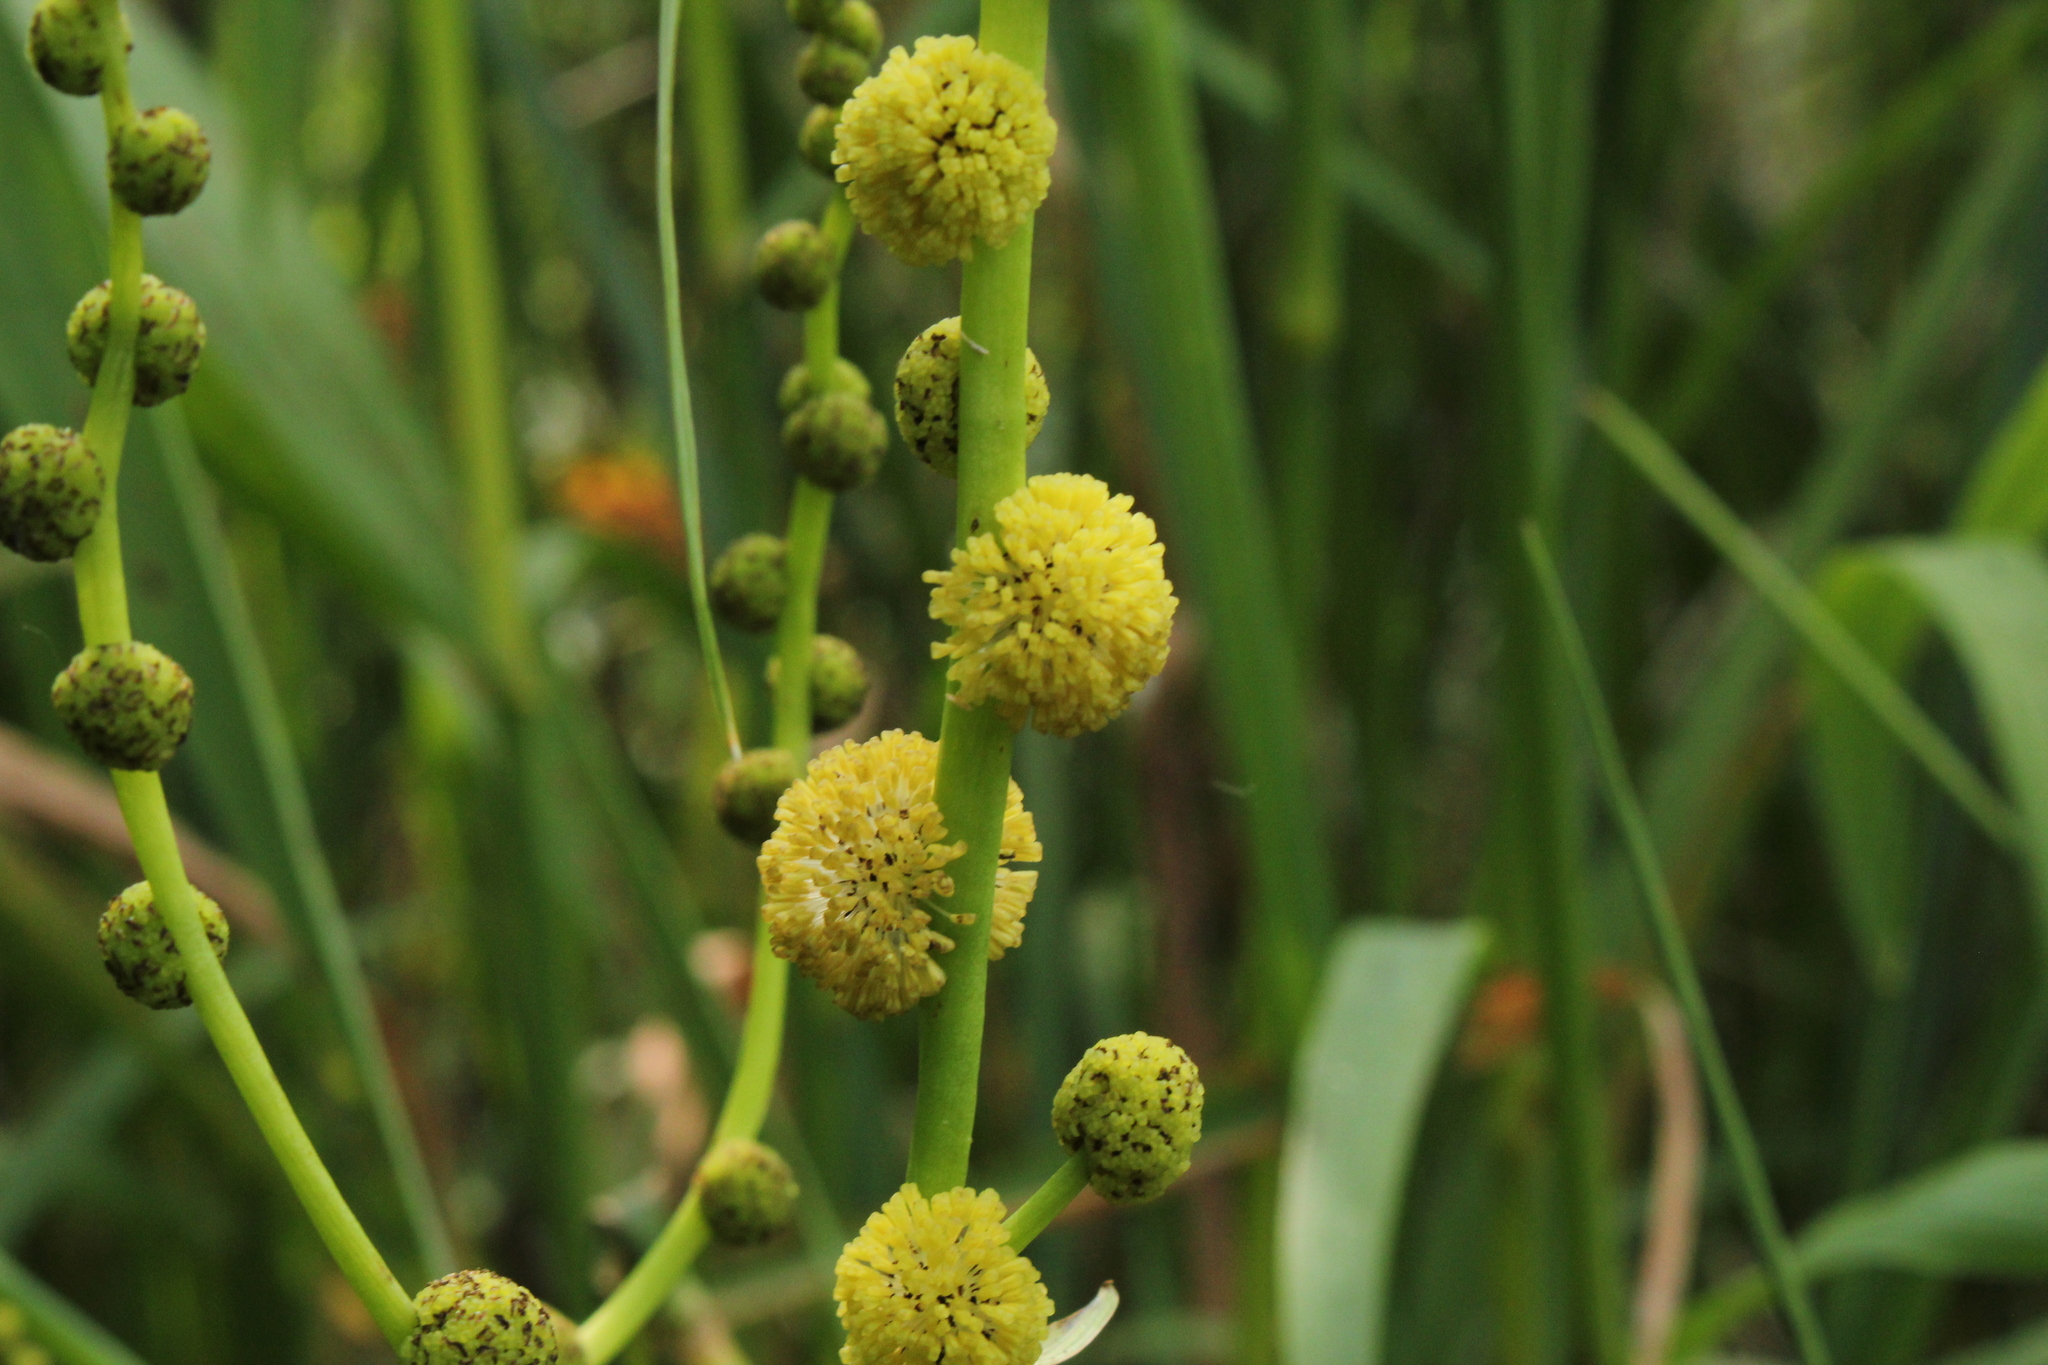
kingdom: Plantae
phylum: Tracheophyta
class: Liliopsida
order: Poales
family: Typhaceae
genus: Sparganium
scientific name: Sparganium eurycarpum
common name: Broad-fruited burreed
